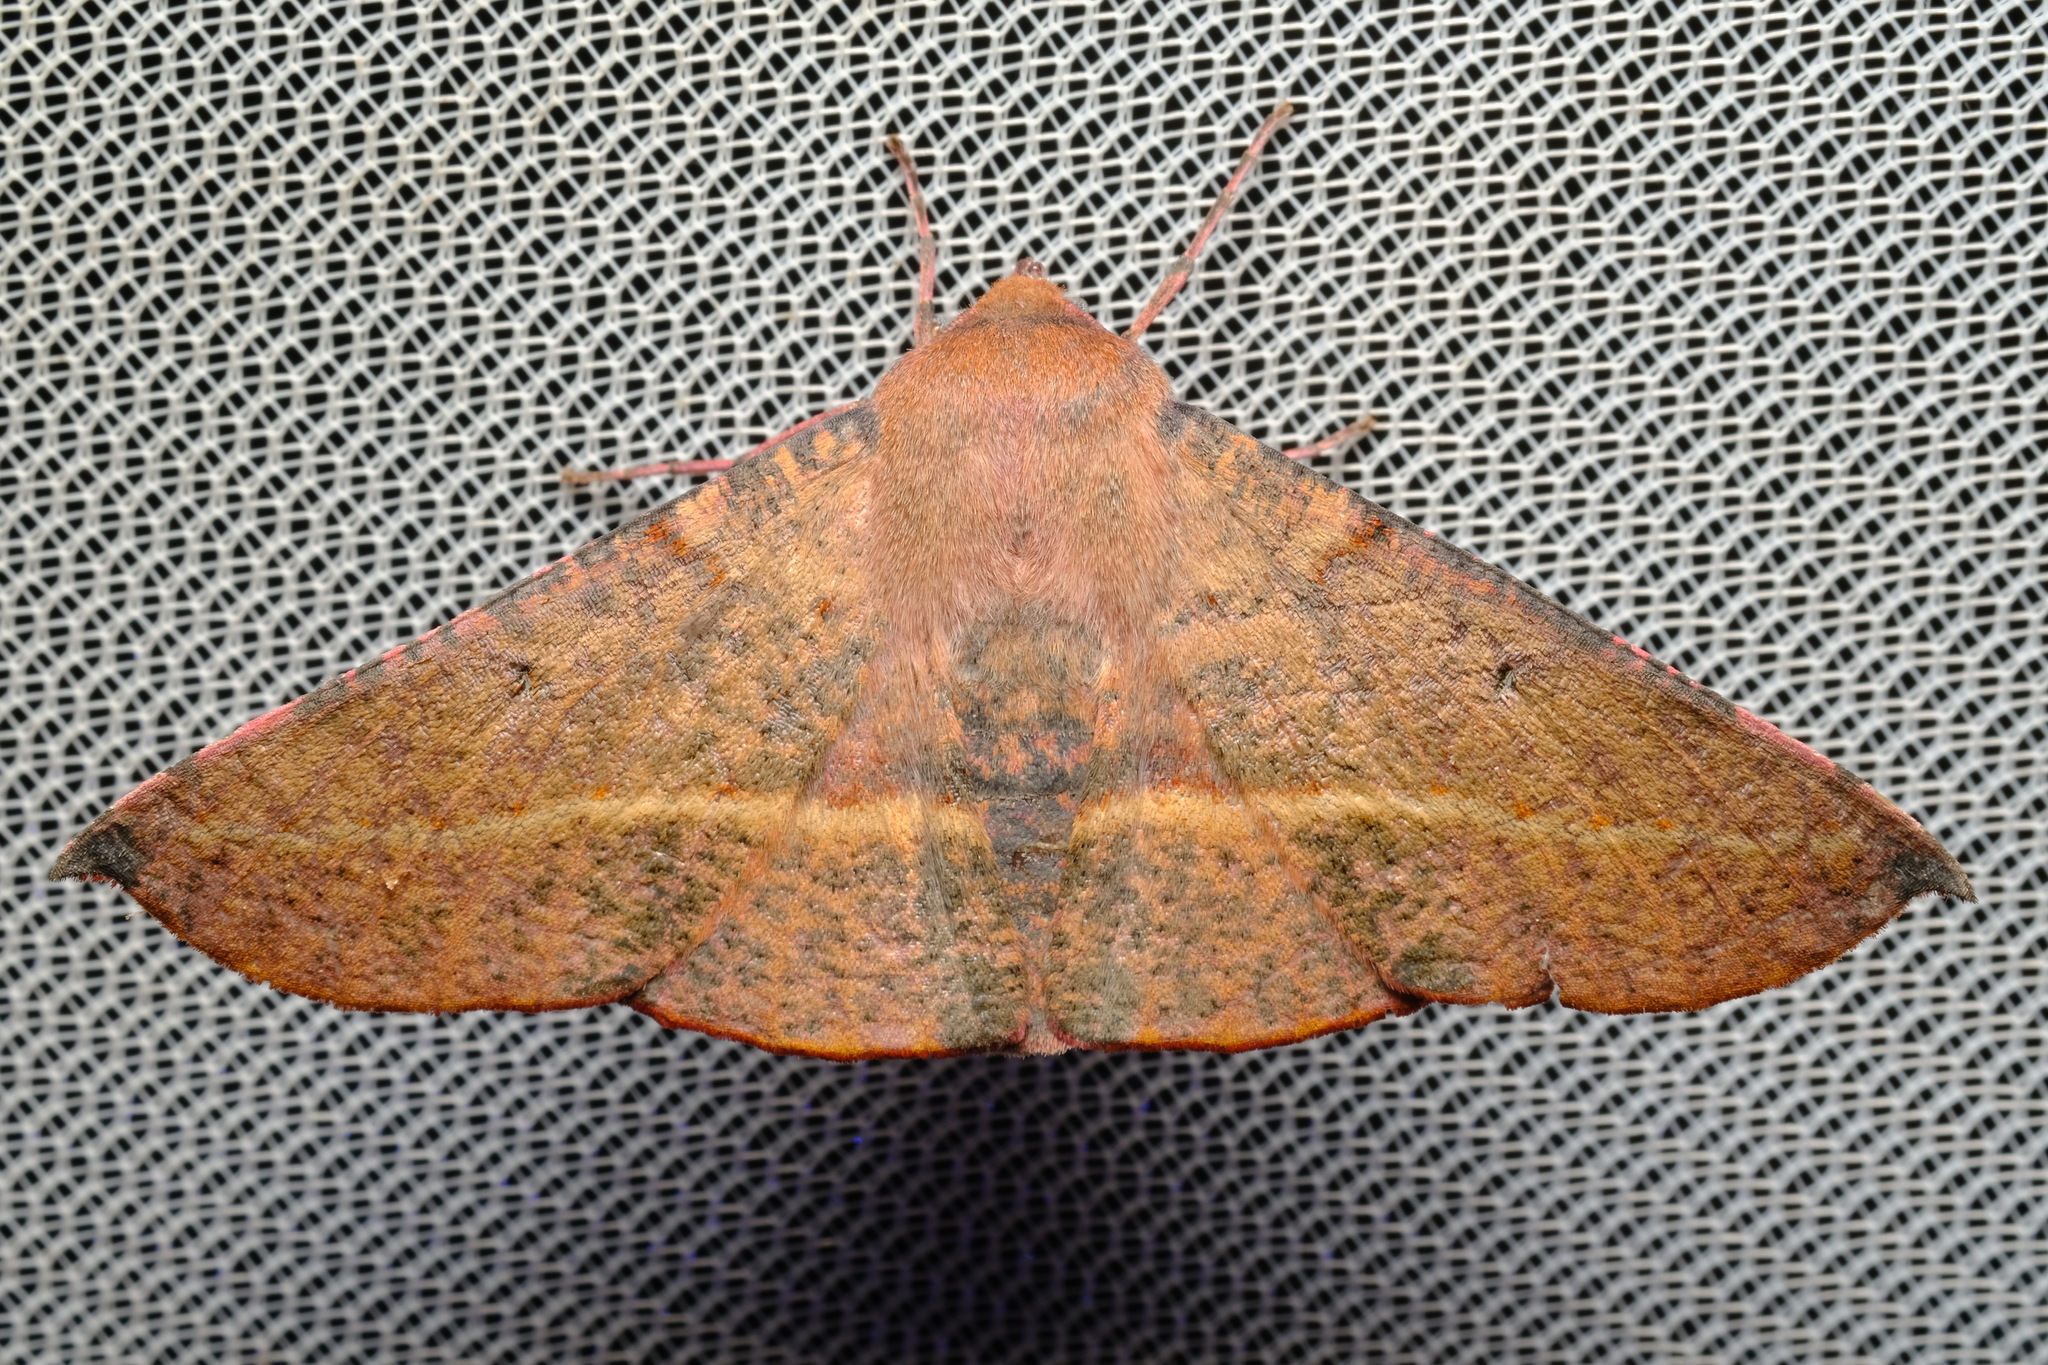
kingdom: Animalia
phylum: Arthropoda
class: Insecta
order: Lepidoptera
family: Geometridae
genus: Oenochroma
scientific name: Oenochroma vinaria
